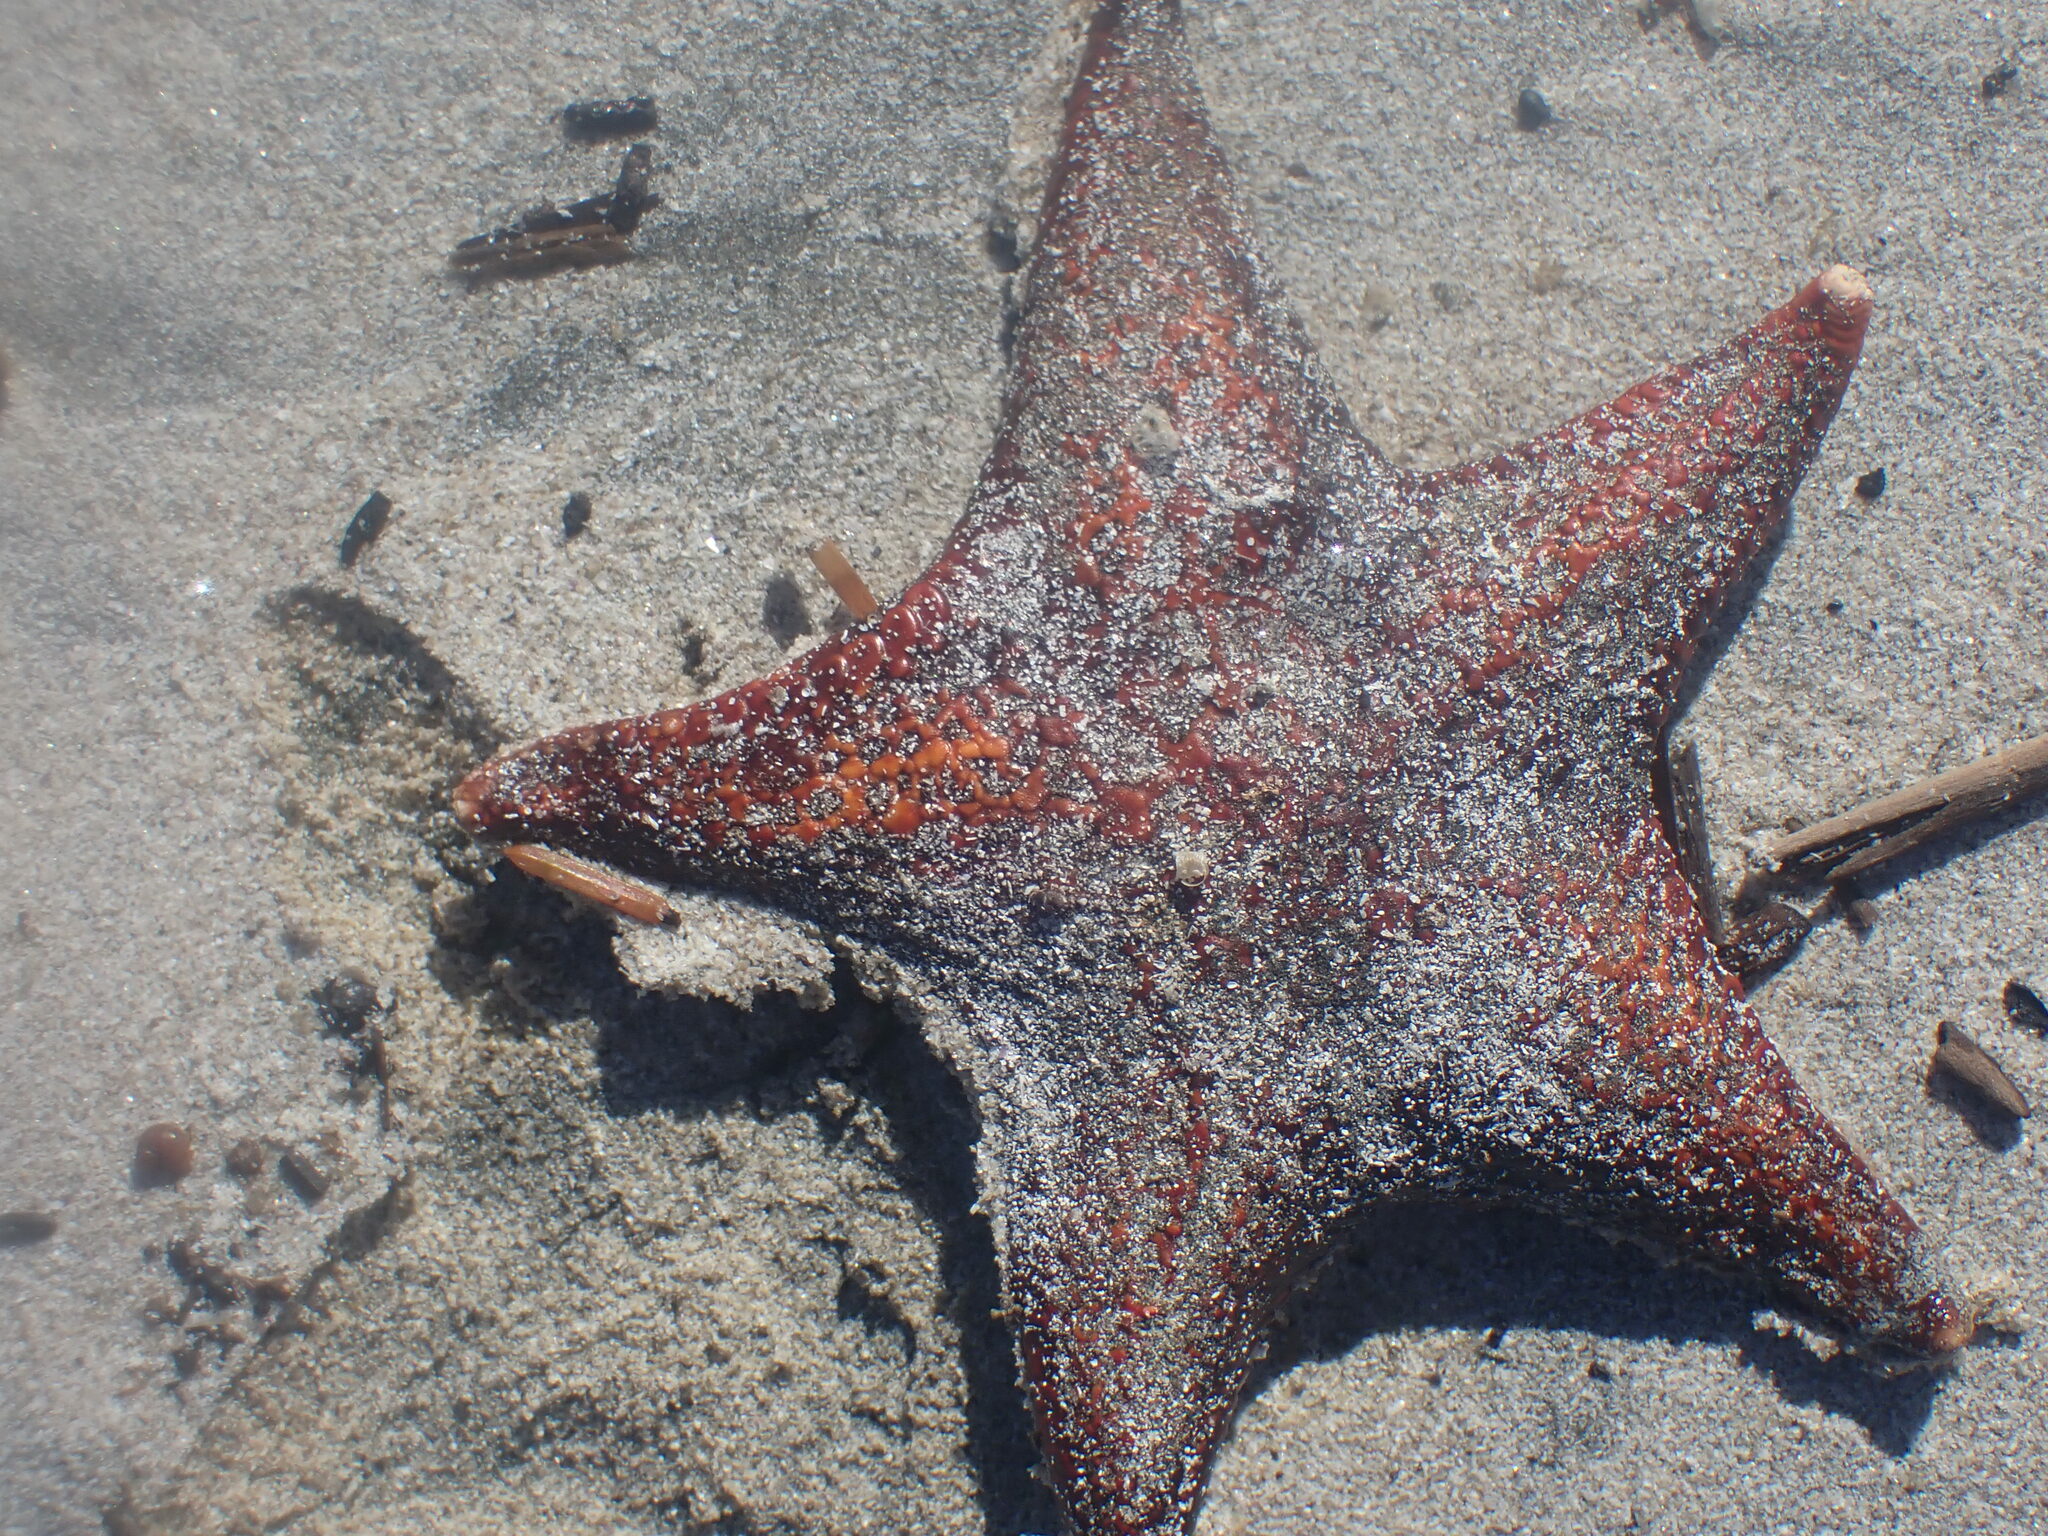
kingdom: Animalia
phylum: Echinodermata
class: Asteroidea
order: Valvatida
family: Asteropseidae
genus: Dermasterias
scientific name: Dermasterias imbricata
